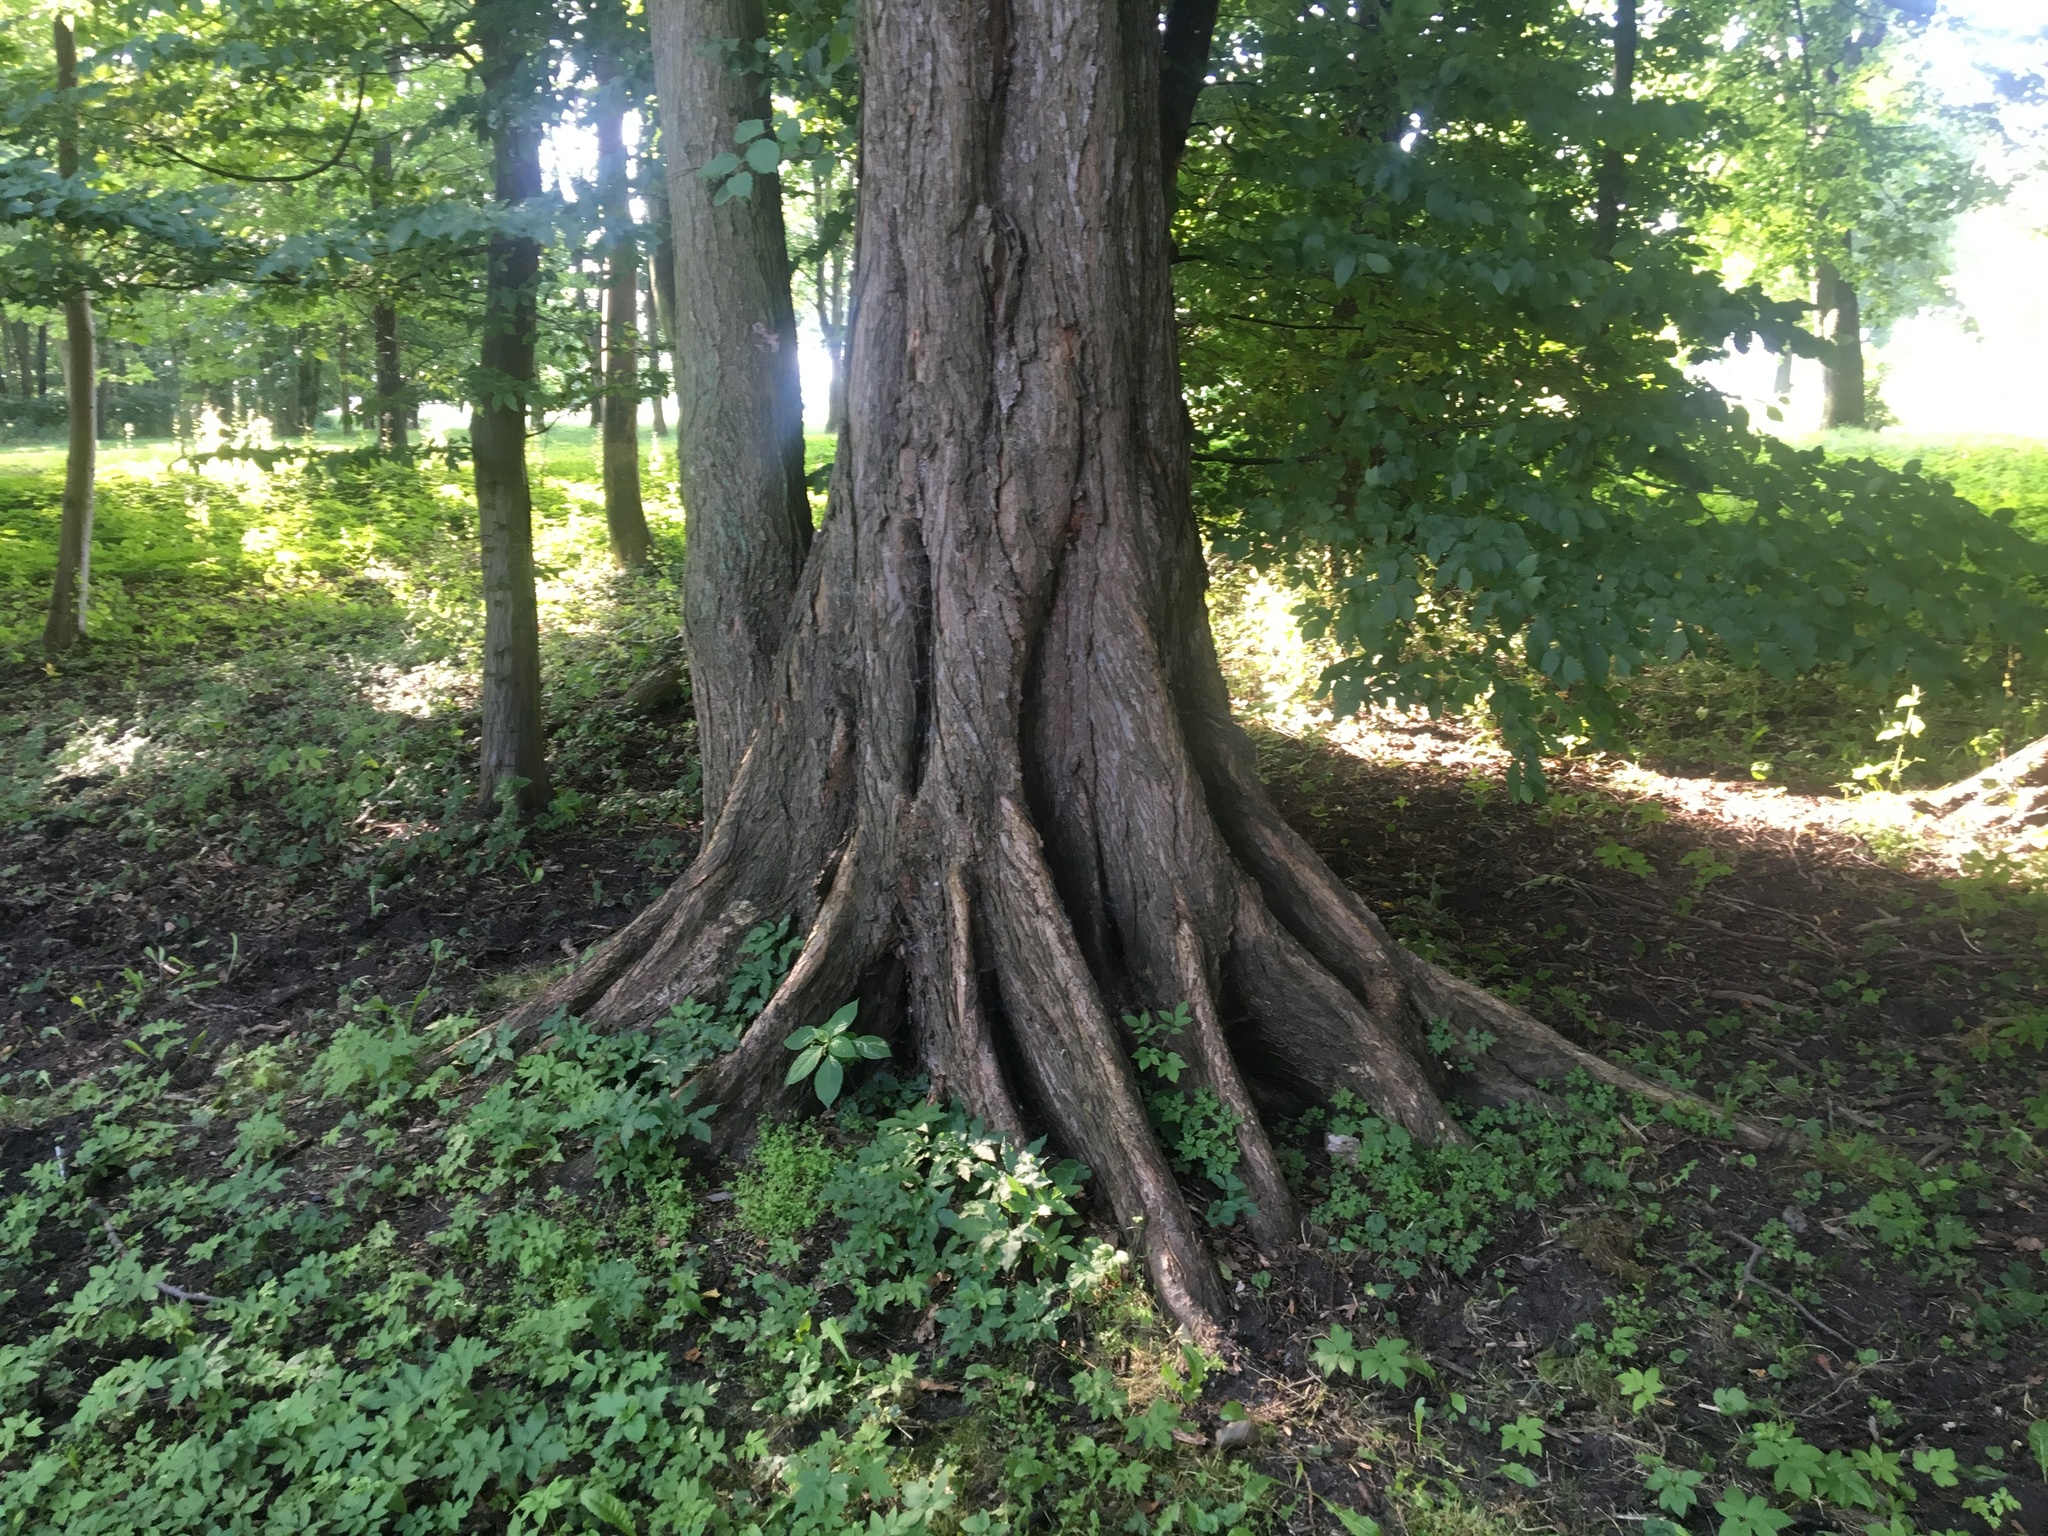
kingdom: Plantae
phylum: Tracheophyta
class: Magnoliopsida
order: Rosales
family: Ulmaceae
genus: Ulmus
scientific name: Ulmus laevis
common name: European white-elm
